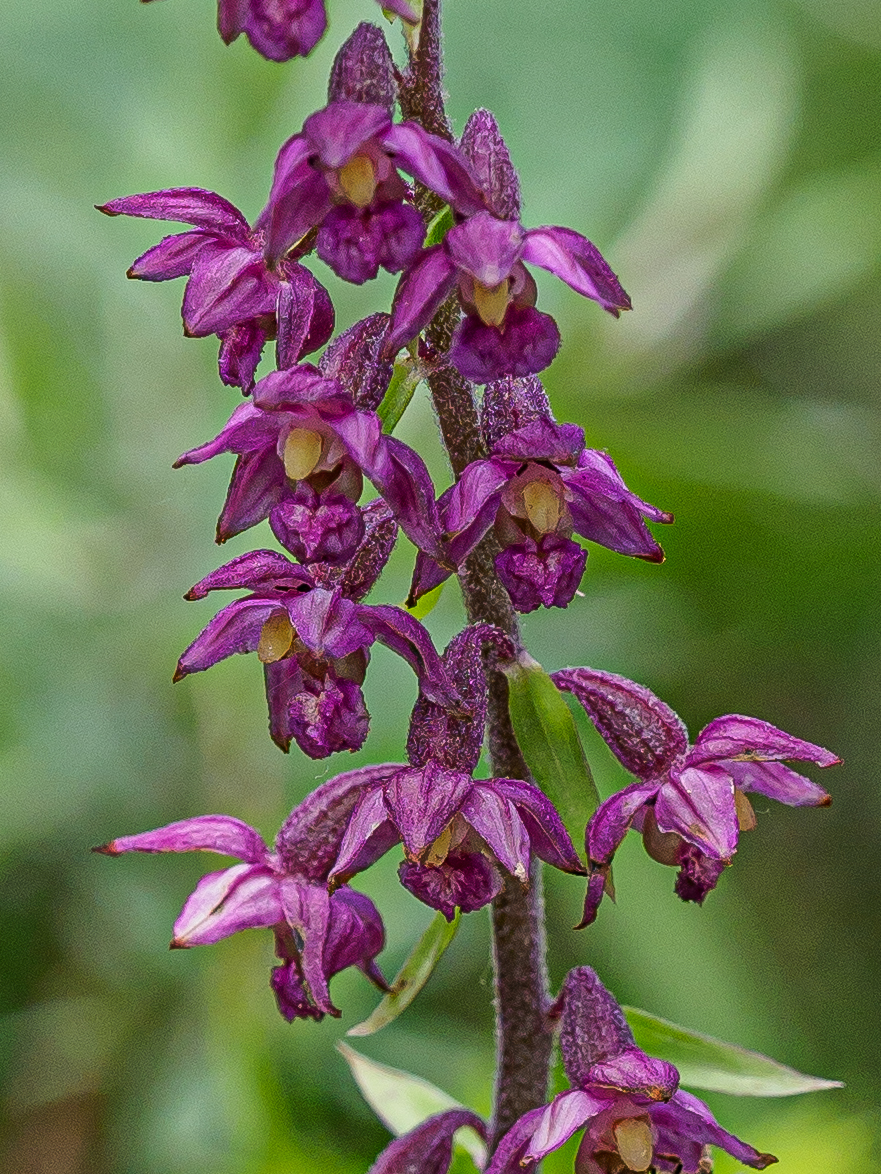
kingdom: Plantae
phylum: Tracheophyta
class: Liliopsida
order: Asparagales
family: Orchidaceae
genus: Epipactis
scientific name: Epipactis atrorubens
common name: Dark-red helleborine
